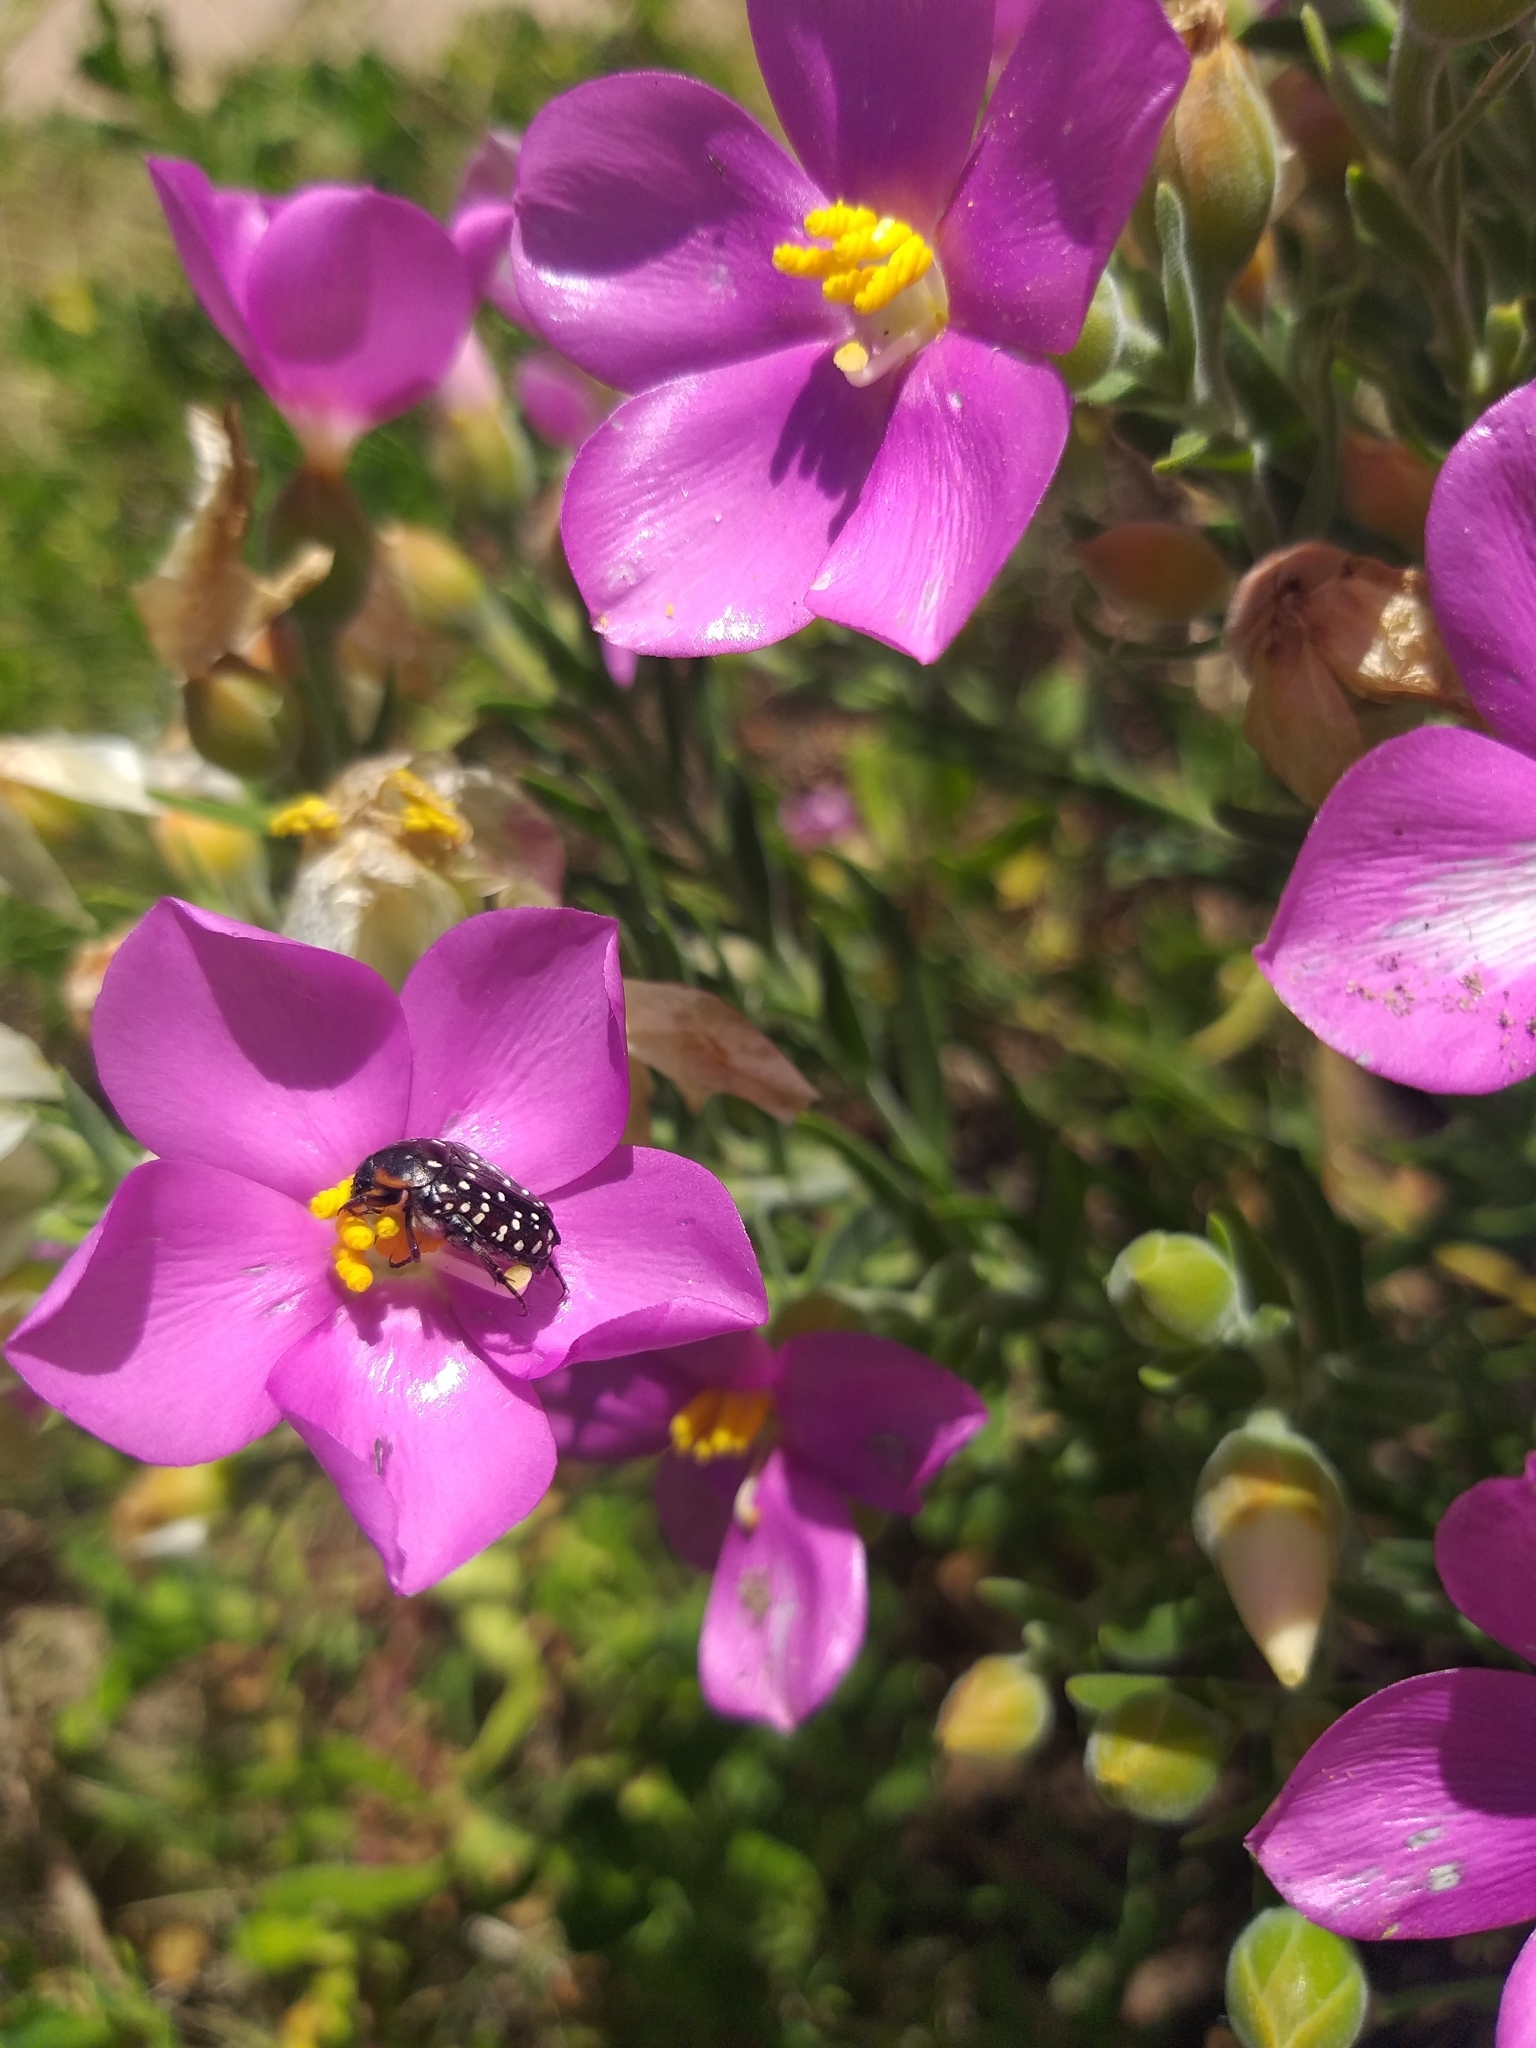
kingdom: Animalia
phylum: Arthropoda
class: Insecta
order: Coleoptera
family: Scarabaeidae
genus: Oxythyrea
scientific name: Oxythyrea
